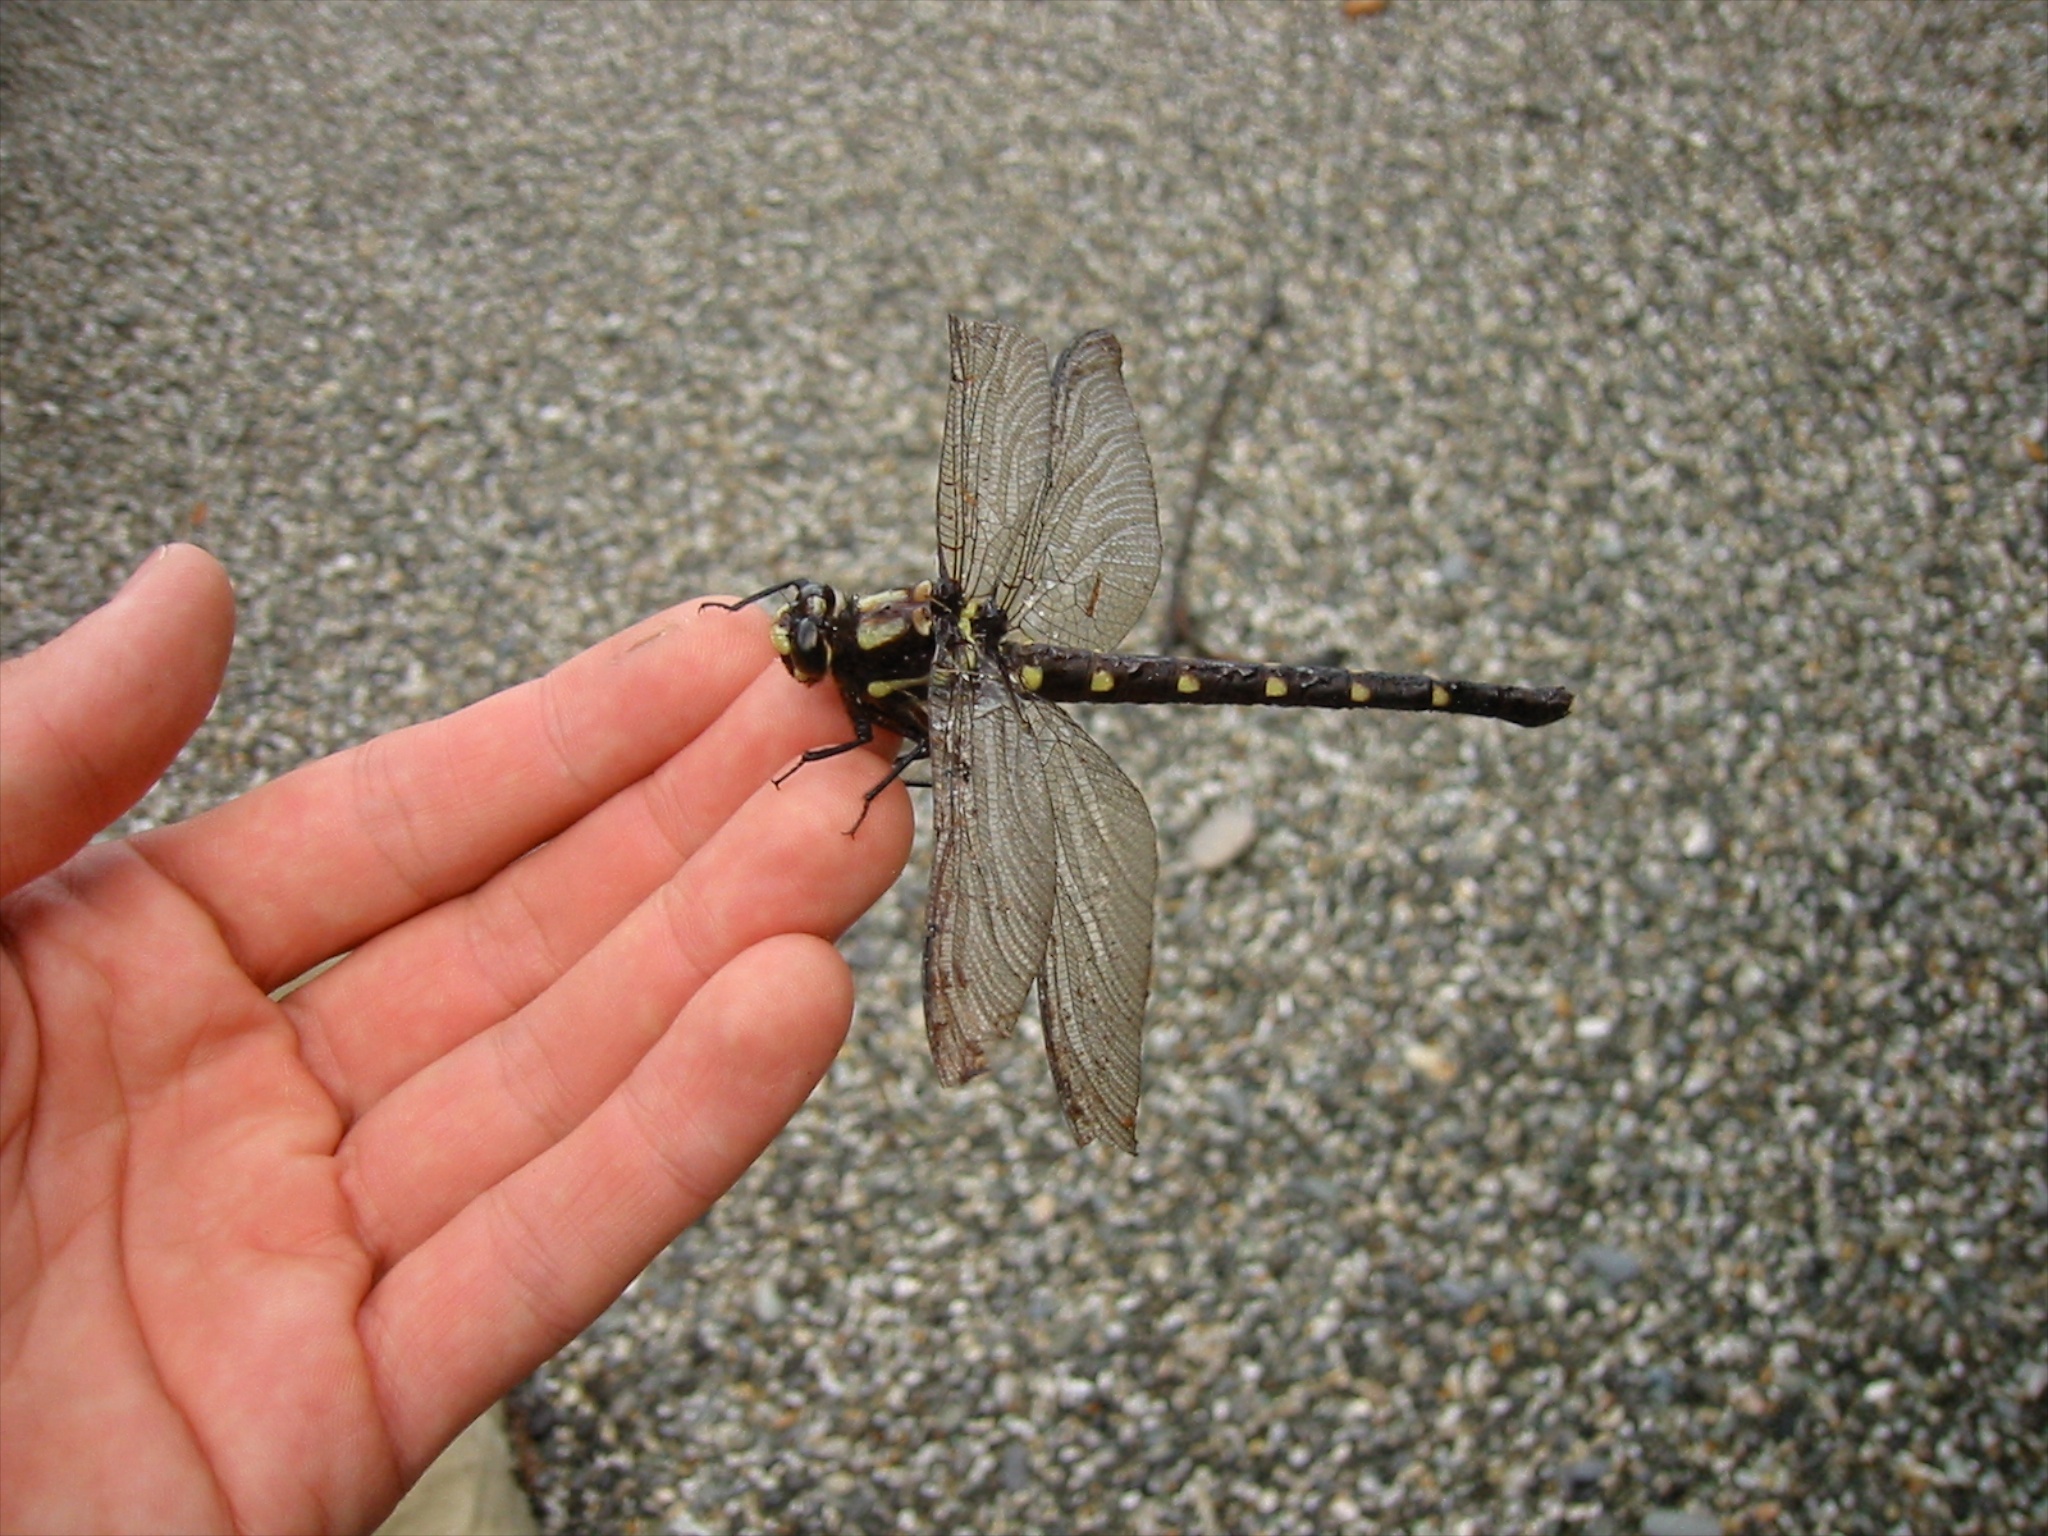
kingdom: Animalia
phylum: Arthropoda
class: Insecta
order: Odonata
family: Petaluridae
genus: Uropetala
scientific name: Uropetala carovei
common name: Bush giant dragonfly
